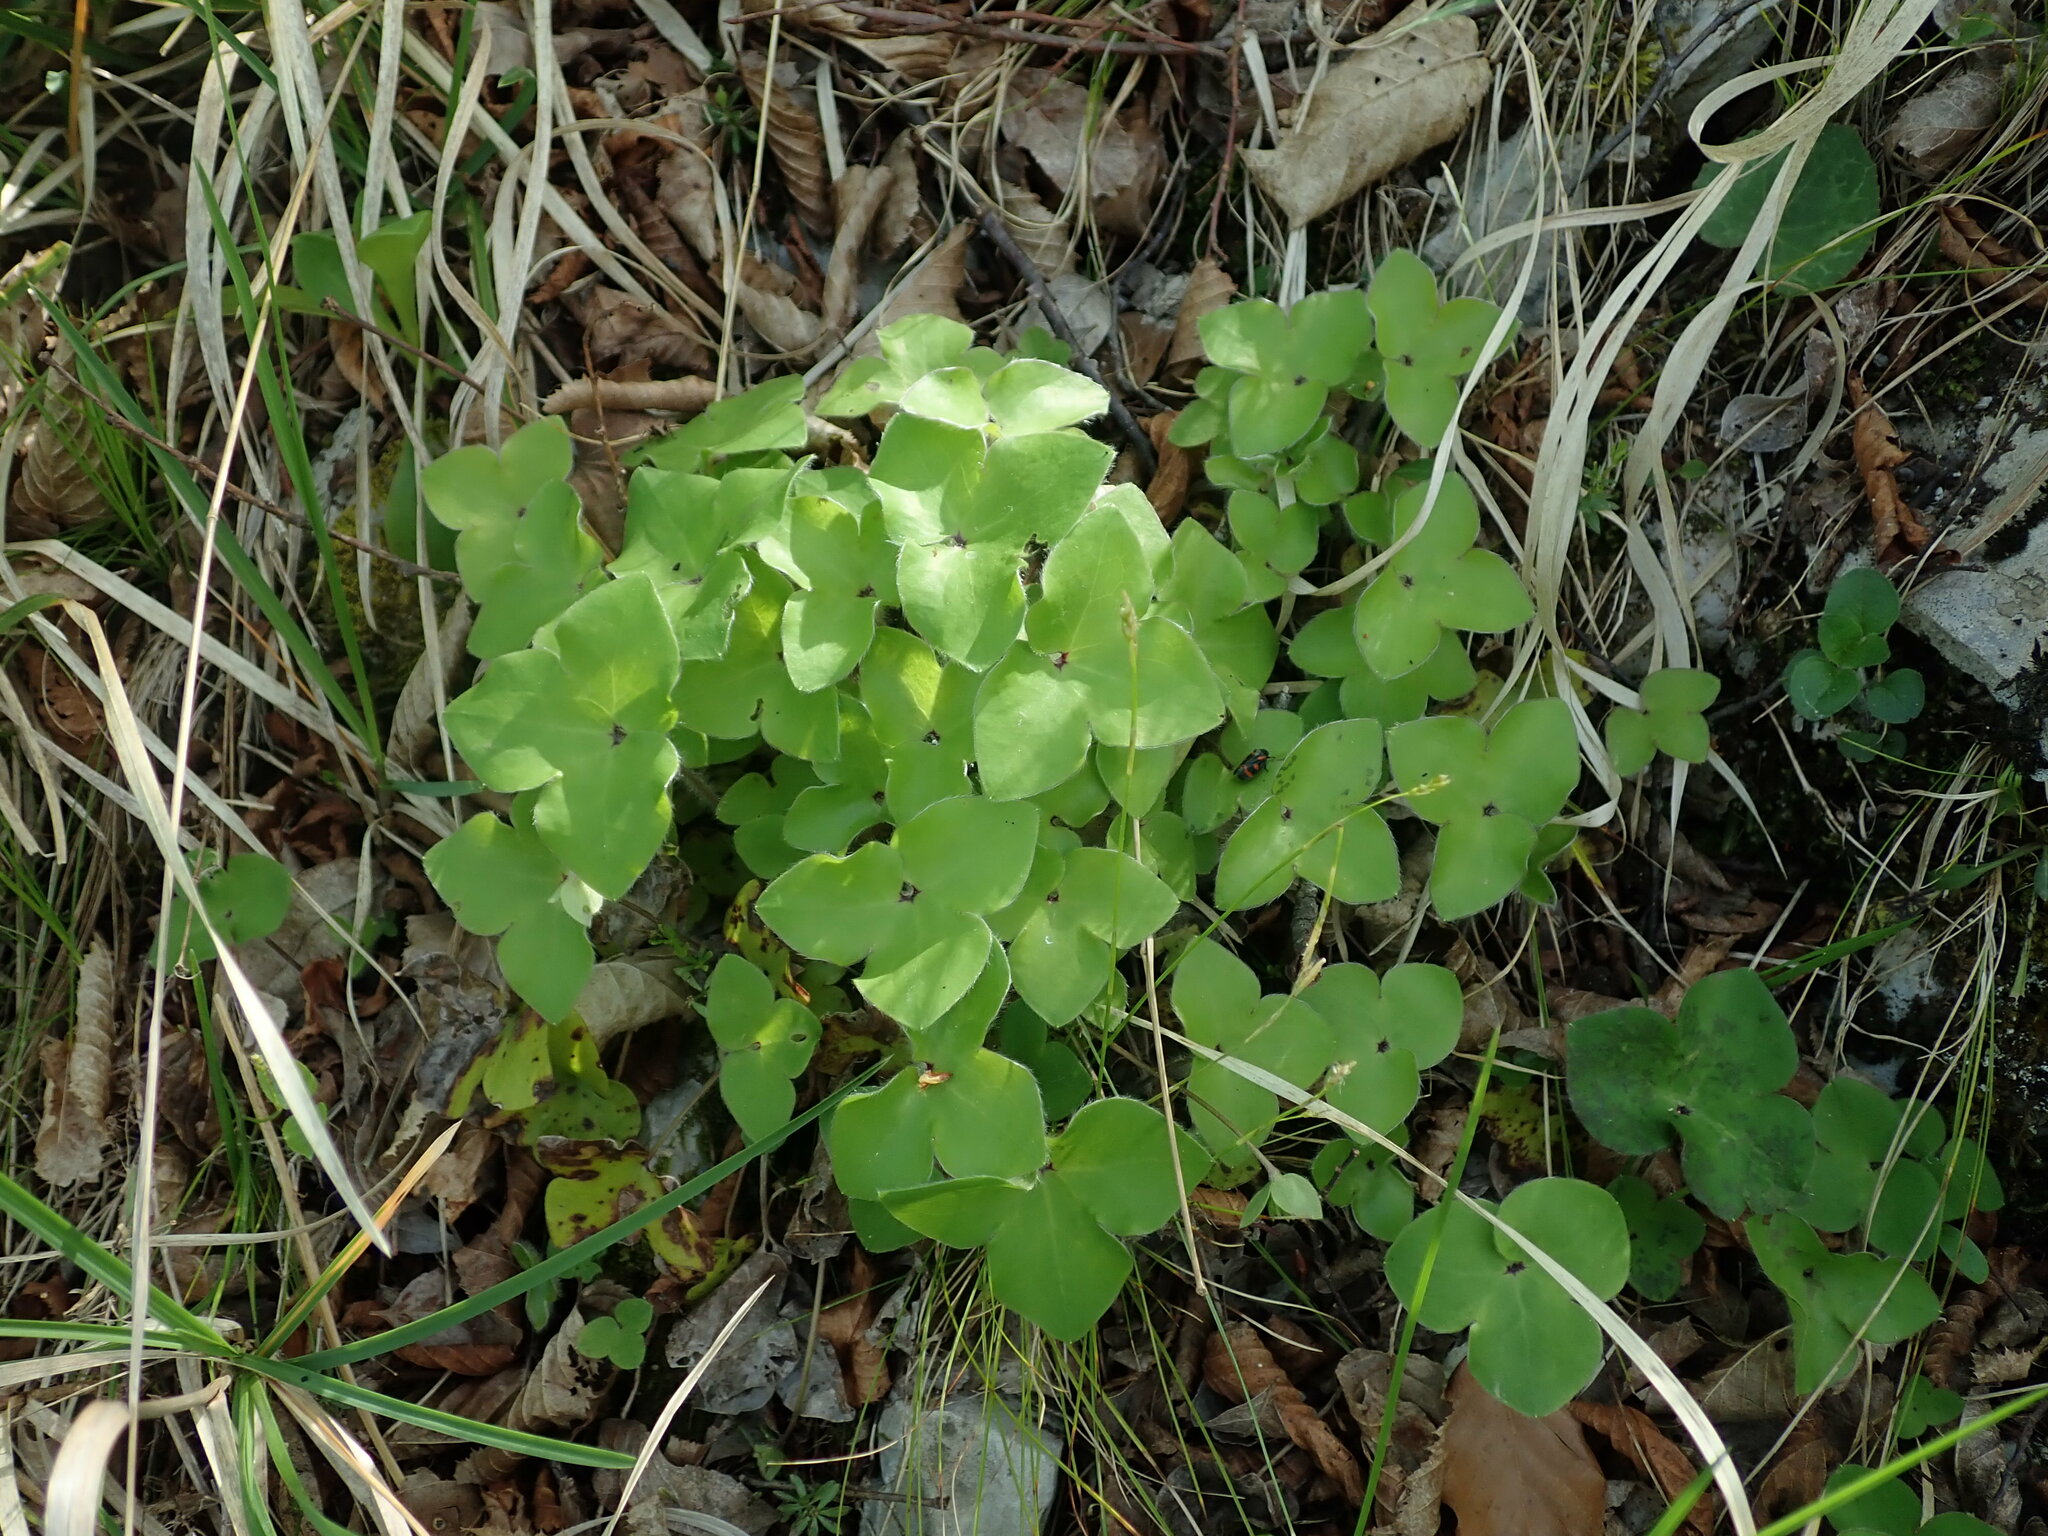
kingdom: Plantae
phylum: Tracheophyta
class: Magnoliopsida
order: Ranunculales
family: Ranunculaceae
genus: Hepatica
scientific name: Hepatica nobilis
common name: Liverleaf
